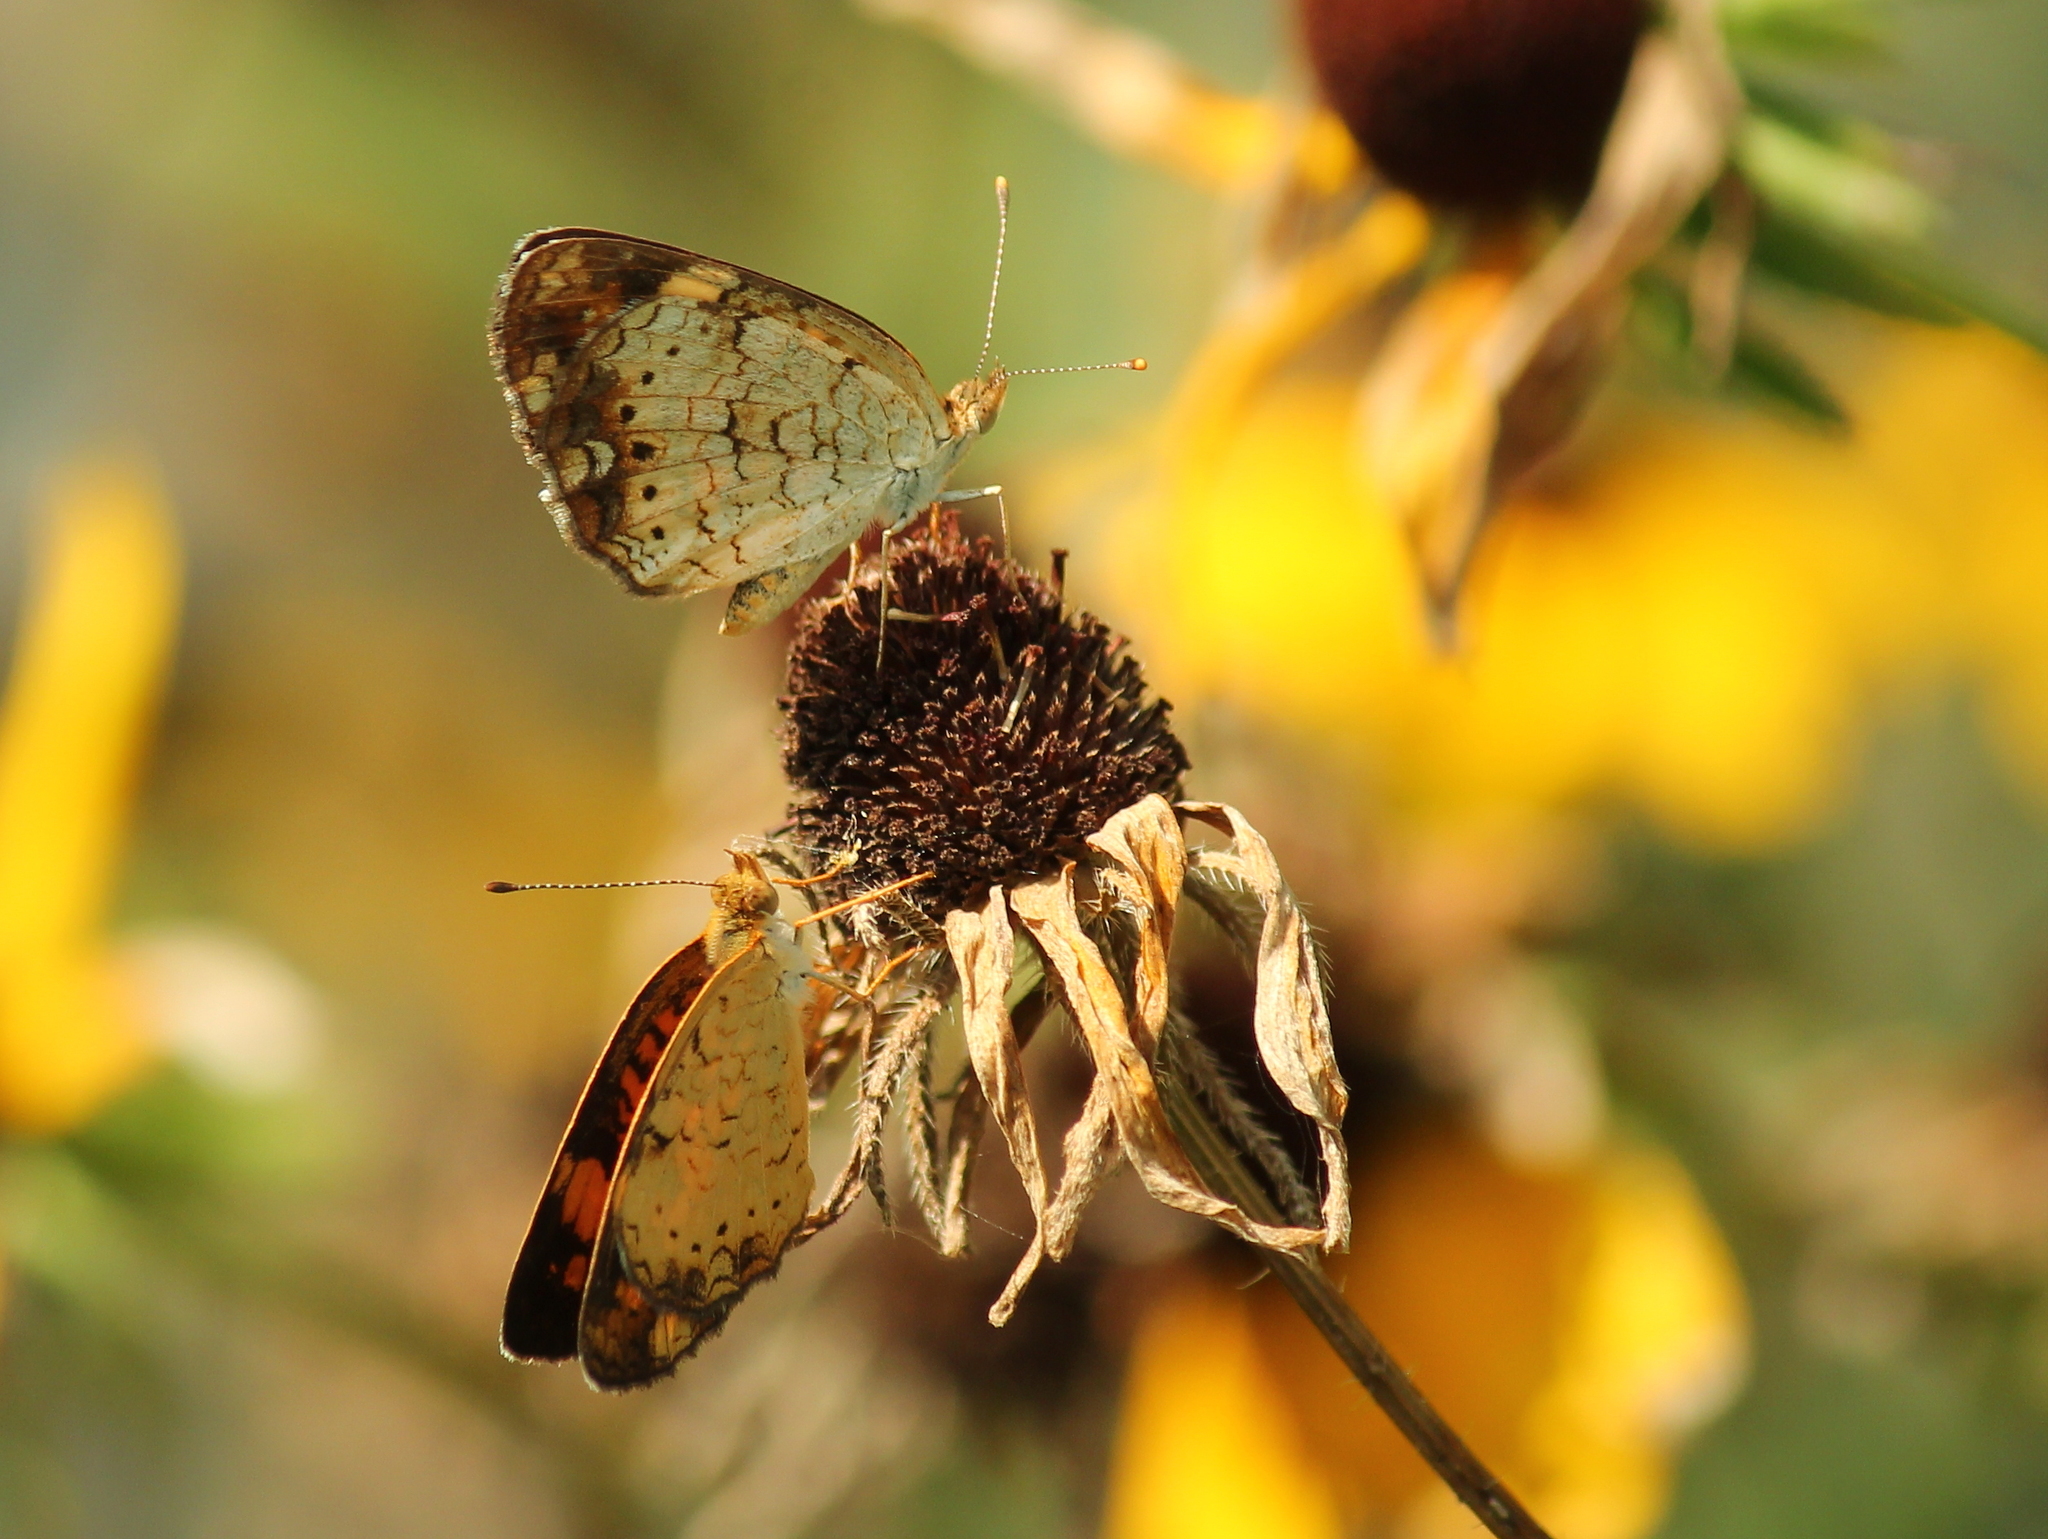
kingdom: Animalia
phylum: Arthropoda
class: Insecta
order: Lepidoptera
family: Nymphalidae
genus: Phyciodes
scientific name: Phyciodes tharos
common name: Pearl crescent
